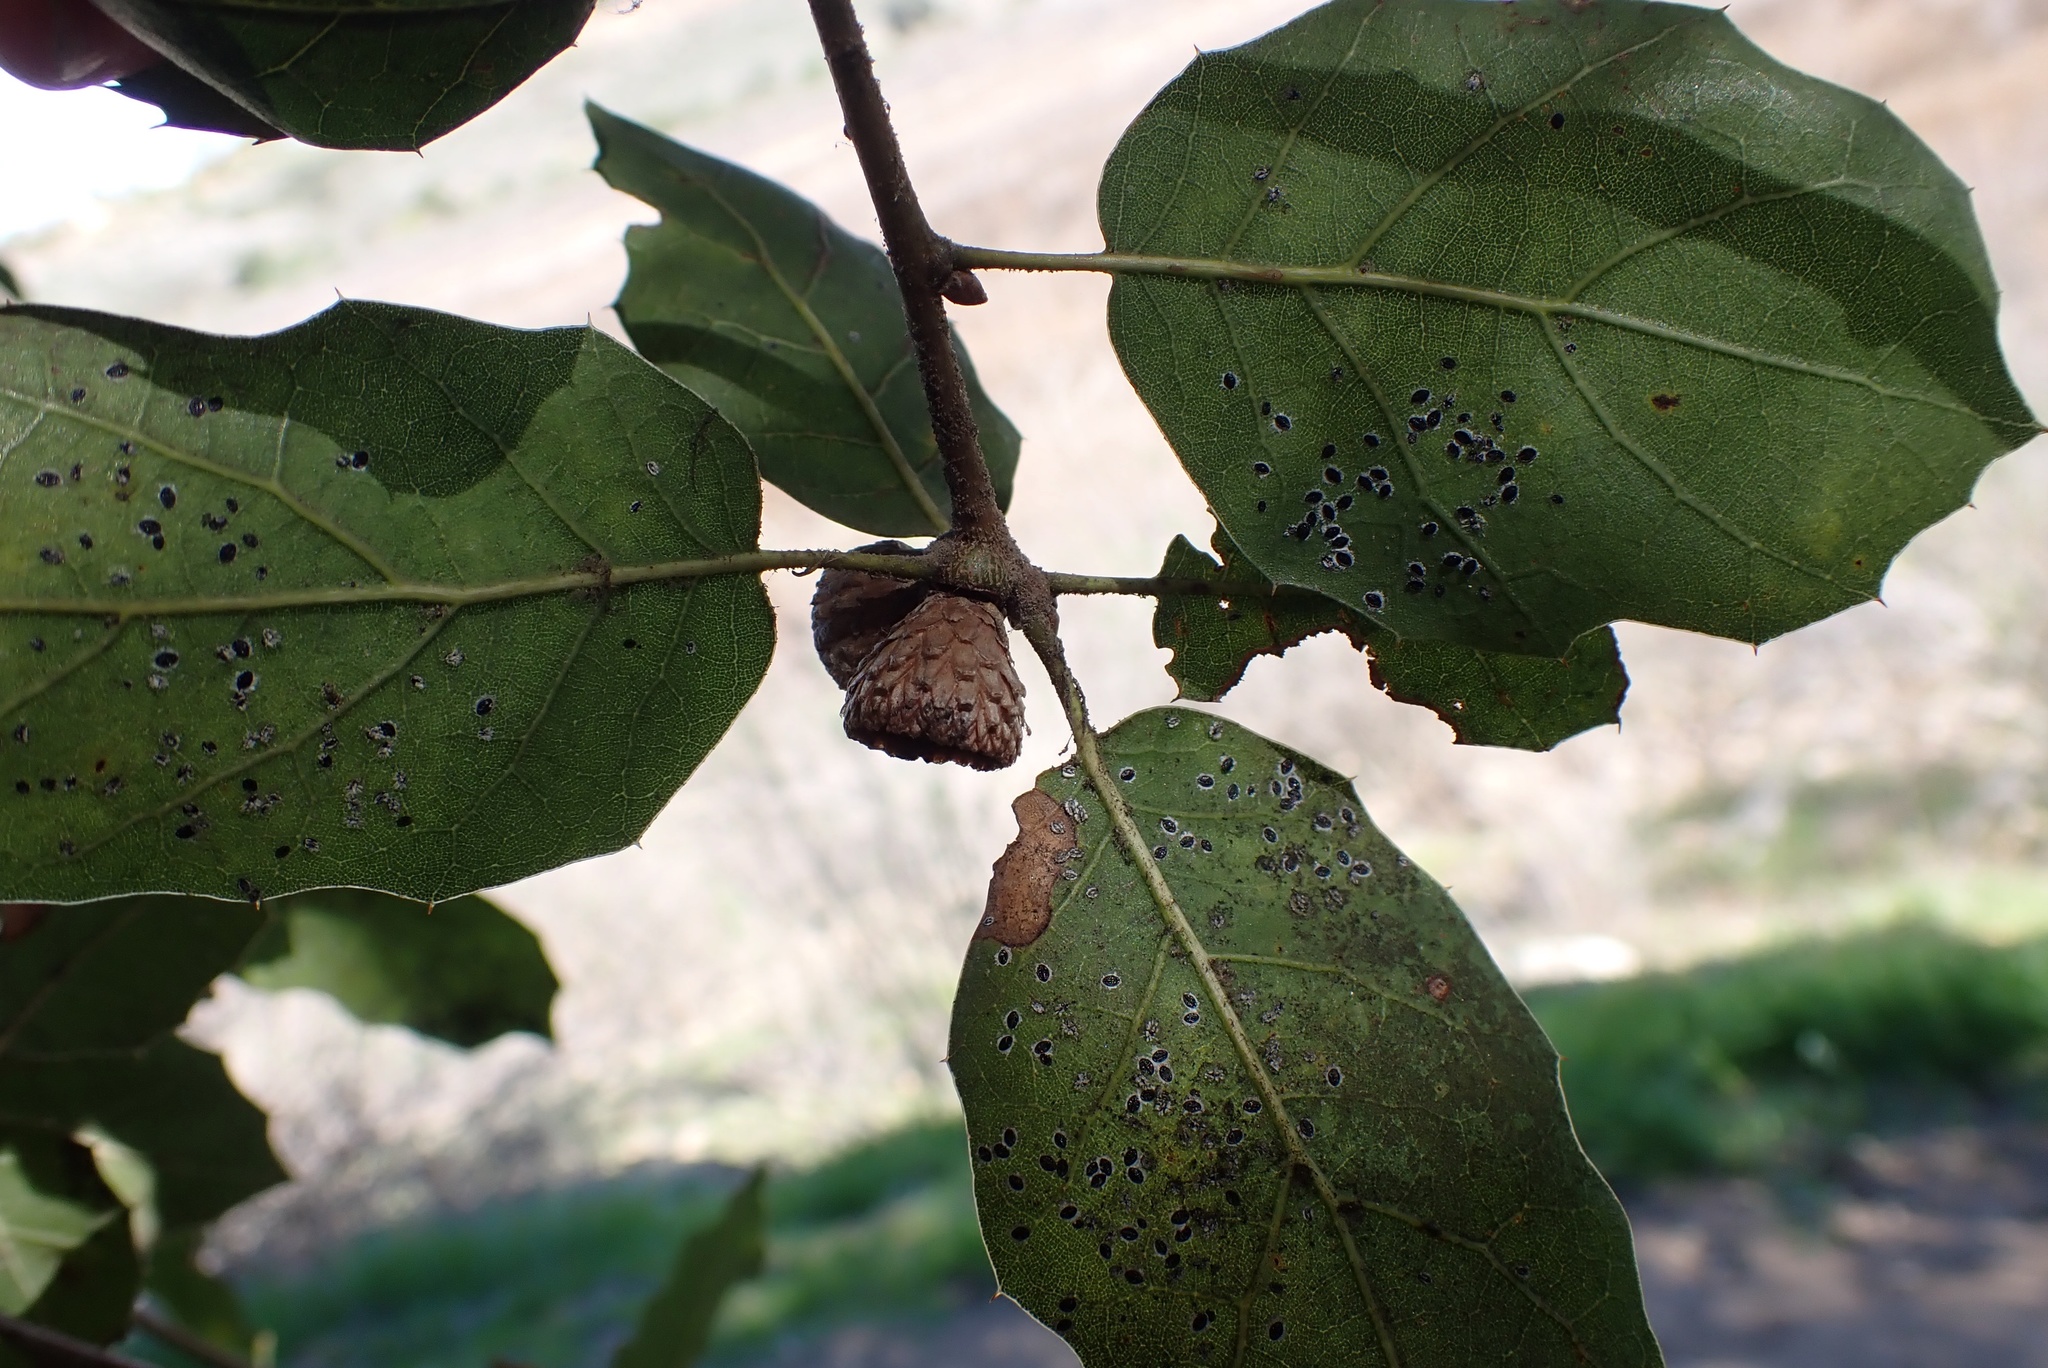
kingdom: Plantae
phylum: Tracheophyta
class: Magnoliopsida
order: Fagales
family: Fagaceae
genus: Quercus
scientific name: Quercus agrifolia
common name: California live oak
